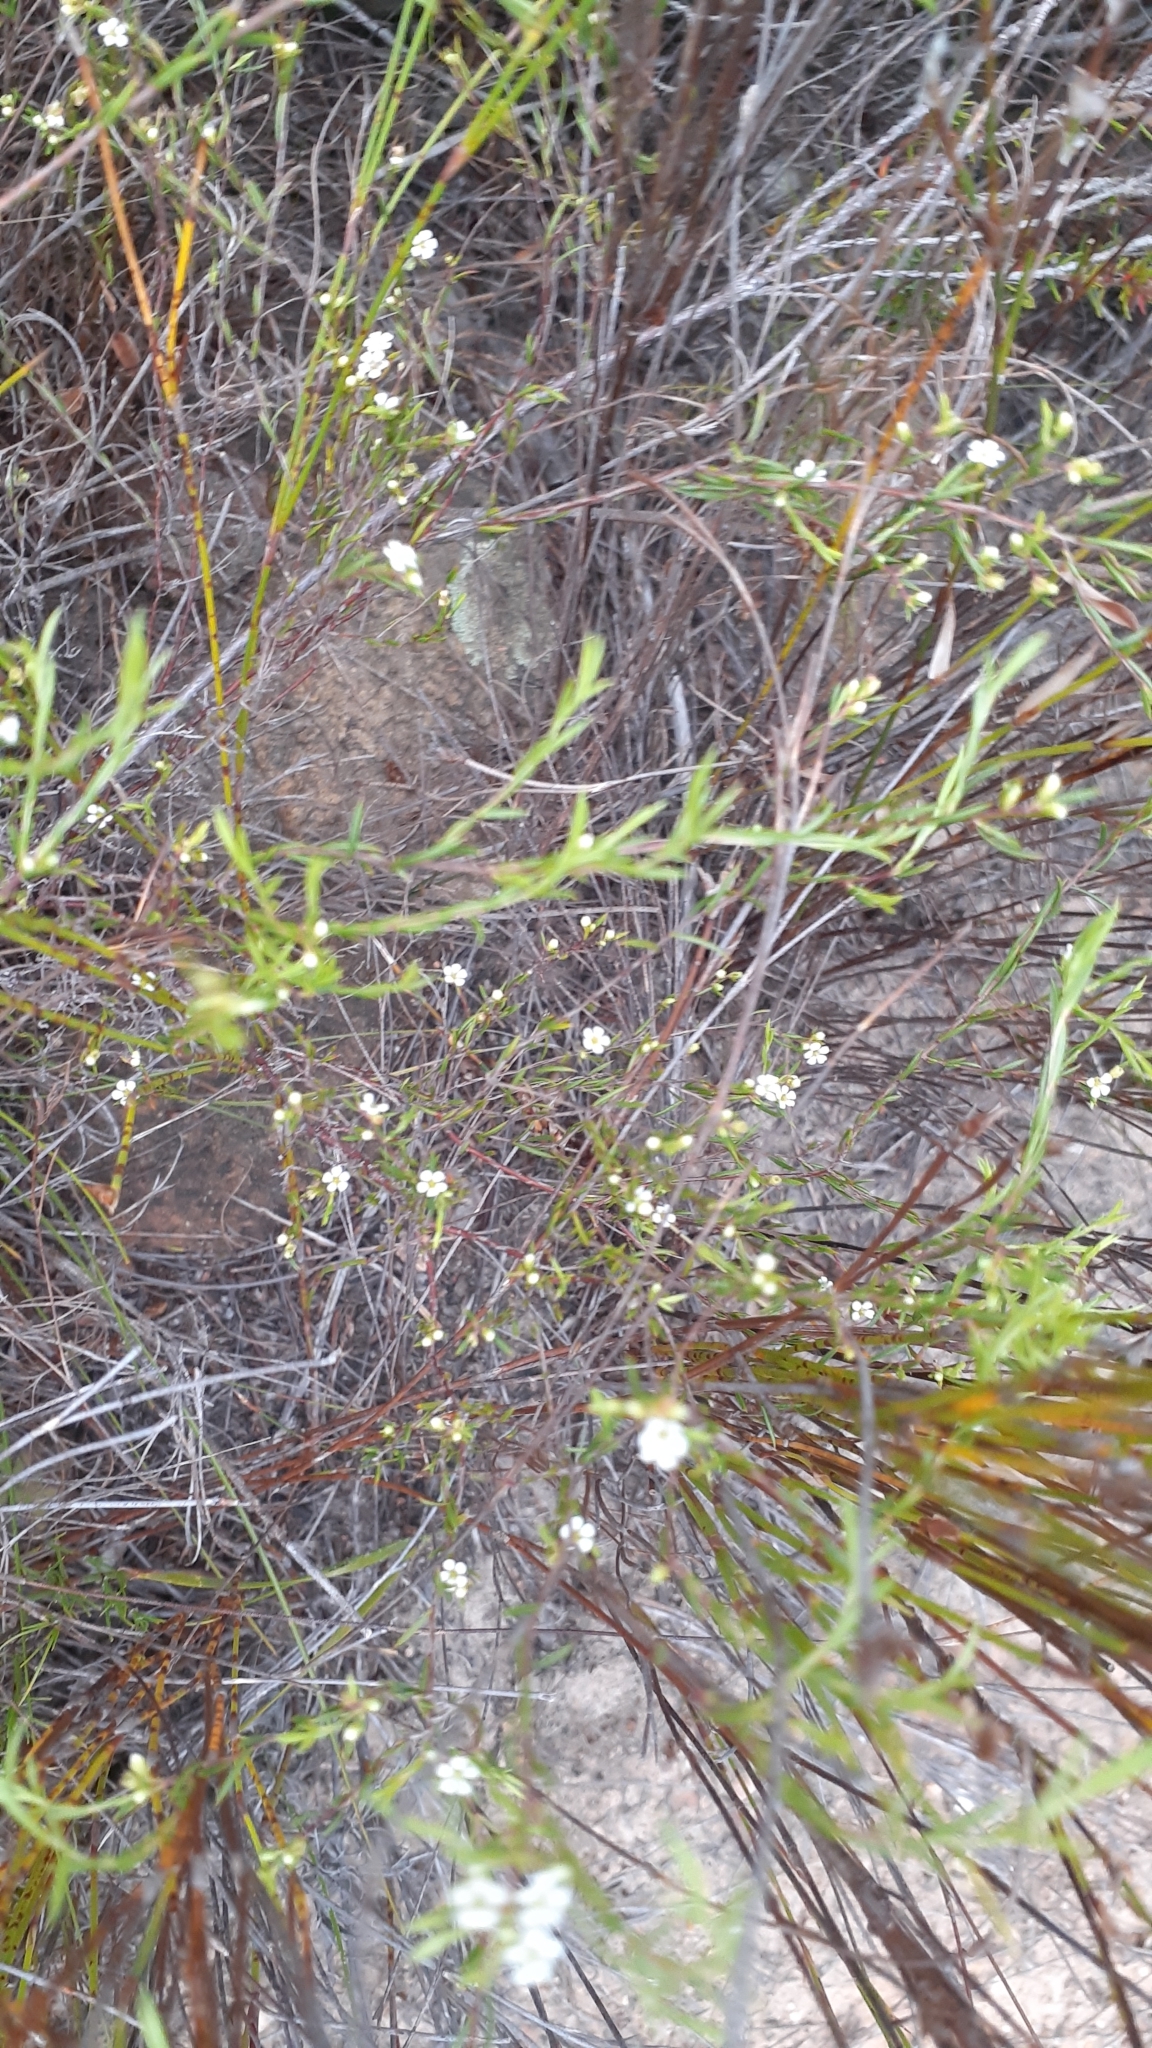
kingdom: Plantae
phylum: Tracheophyta
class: Magnoliopsida
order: Sapindales
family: Rutaceae
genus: Coleonema
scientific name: Coleonema juniperinum
